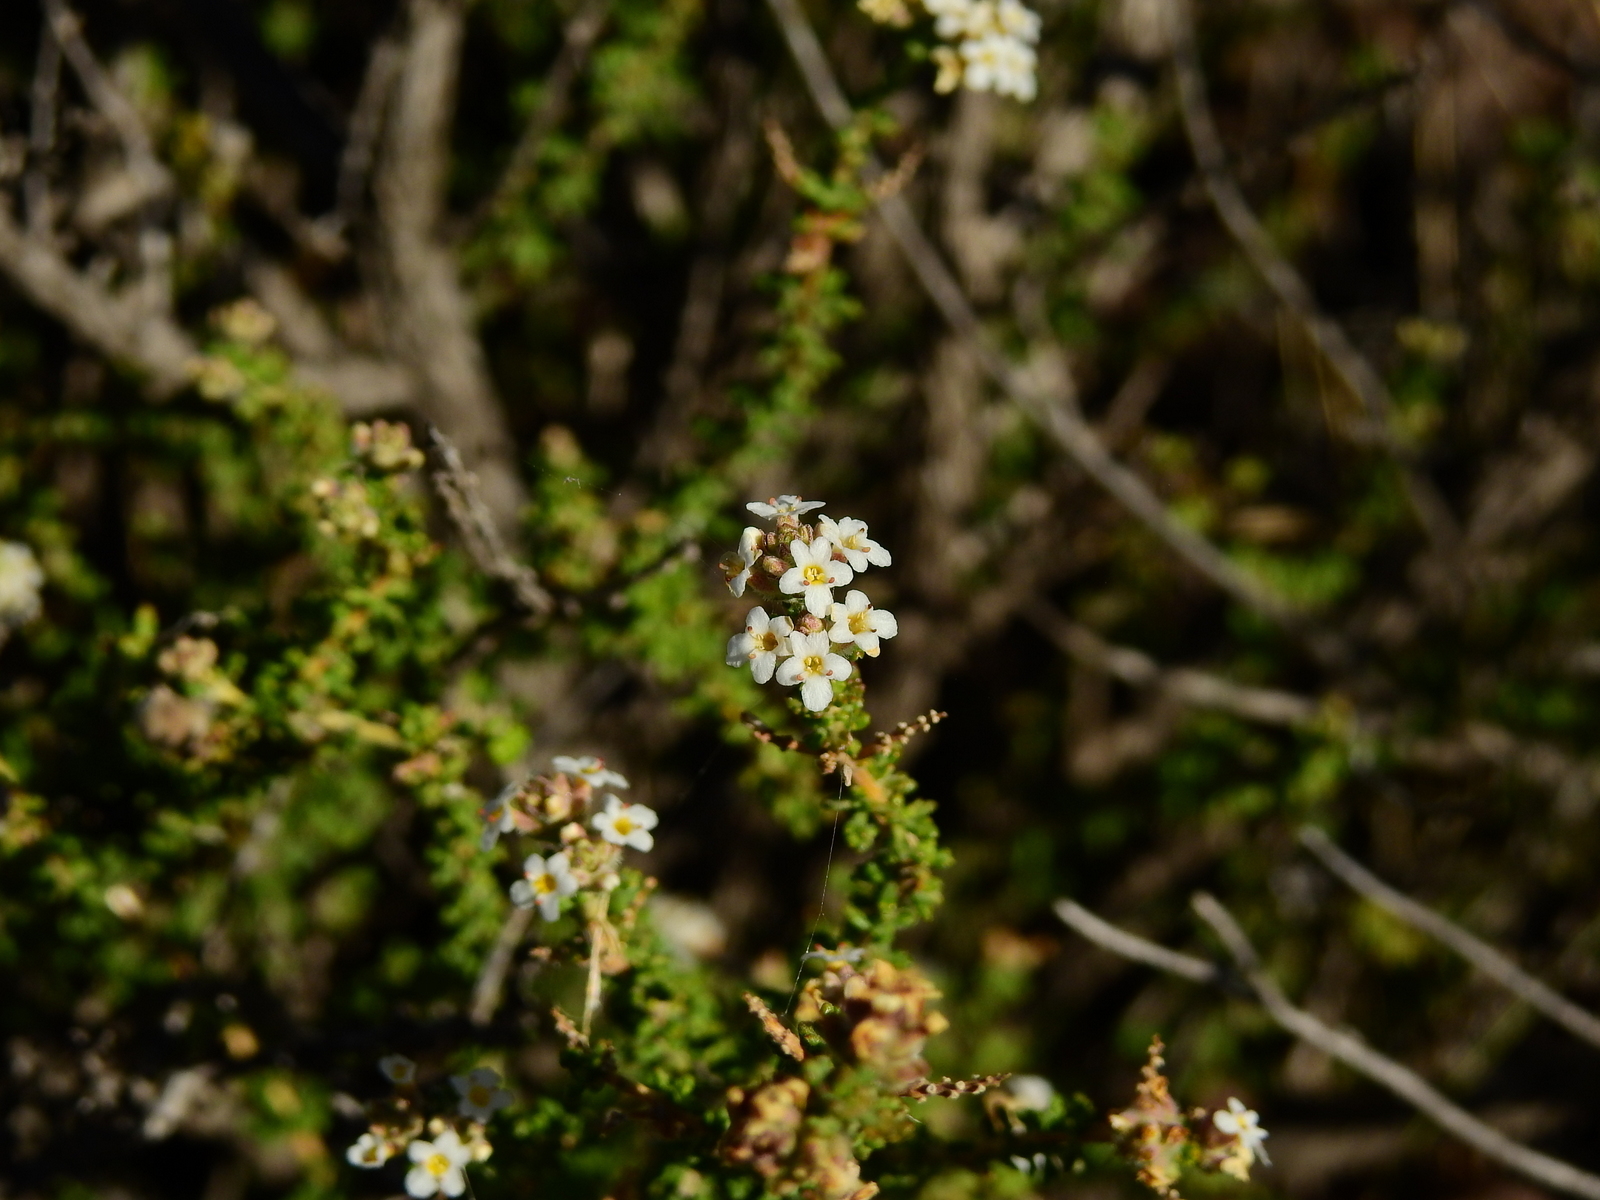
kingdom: Plantae
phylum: Tracheophyta
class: Magnoliopsida
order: Lamiales
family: Verbenaceae
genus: Acantholippia
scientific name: Acantholippia seriphioides
